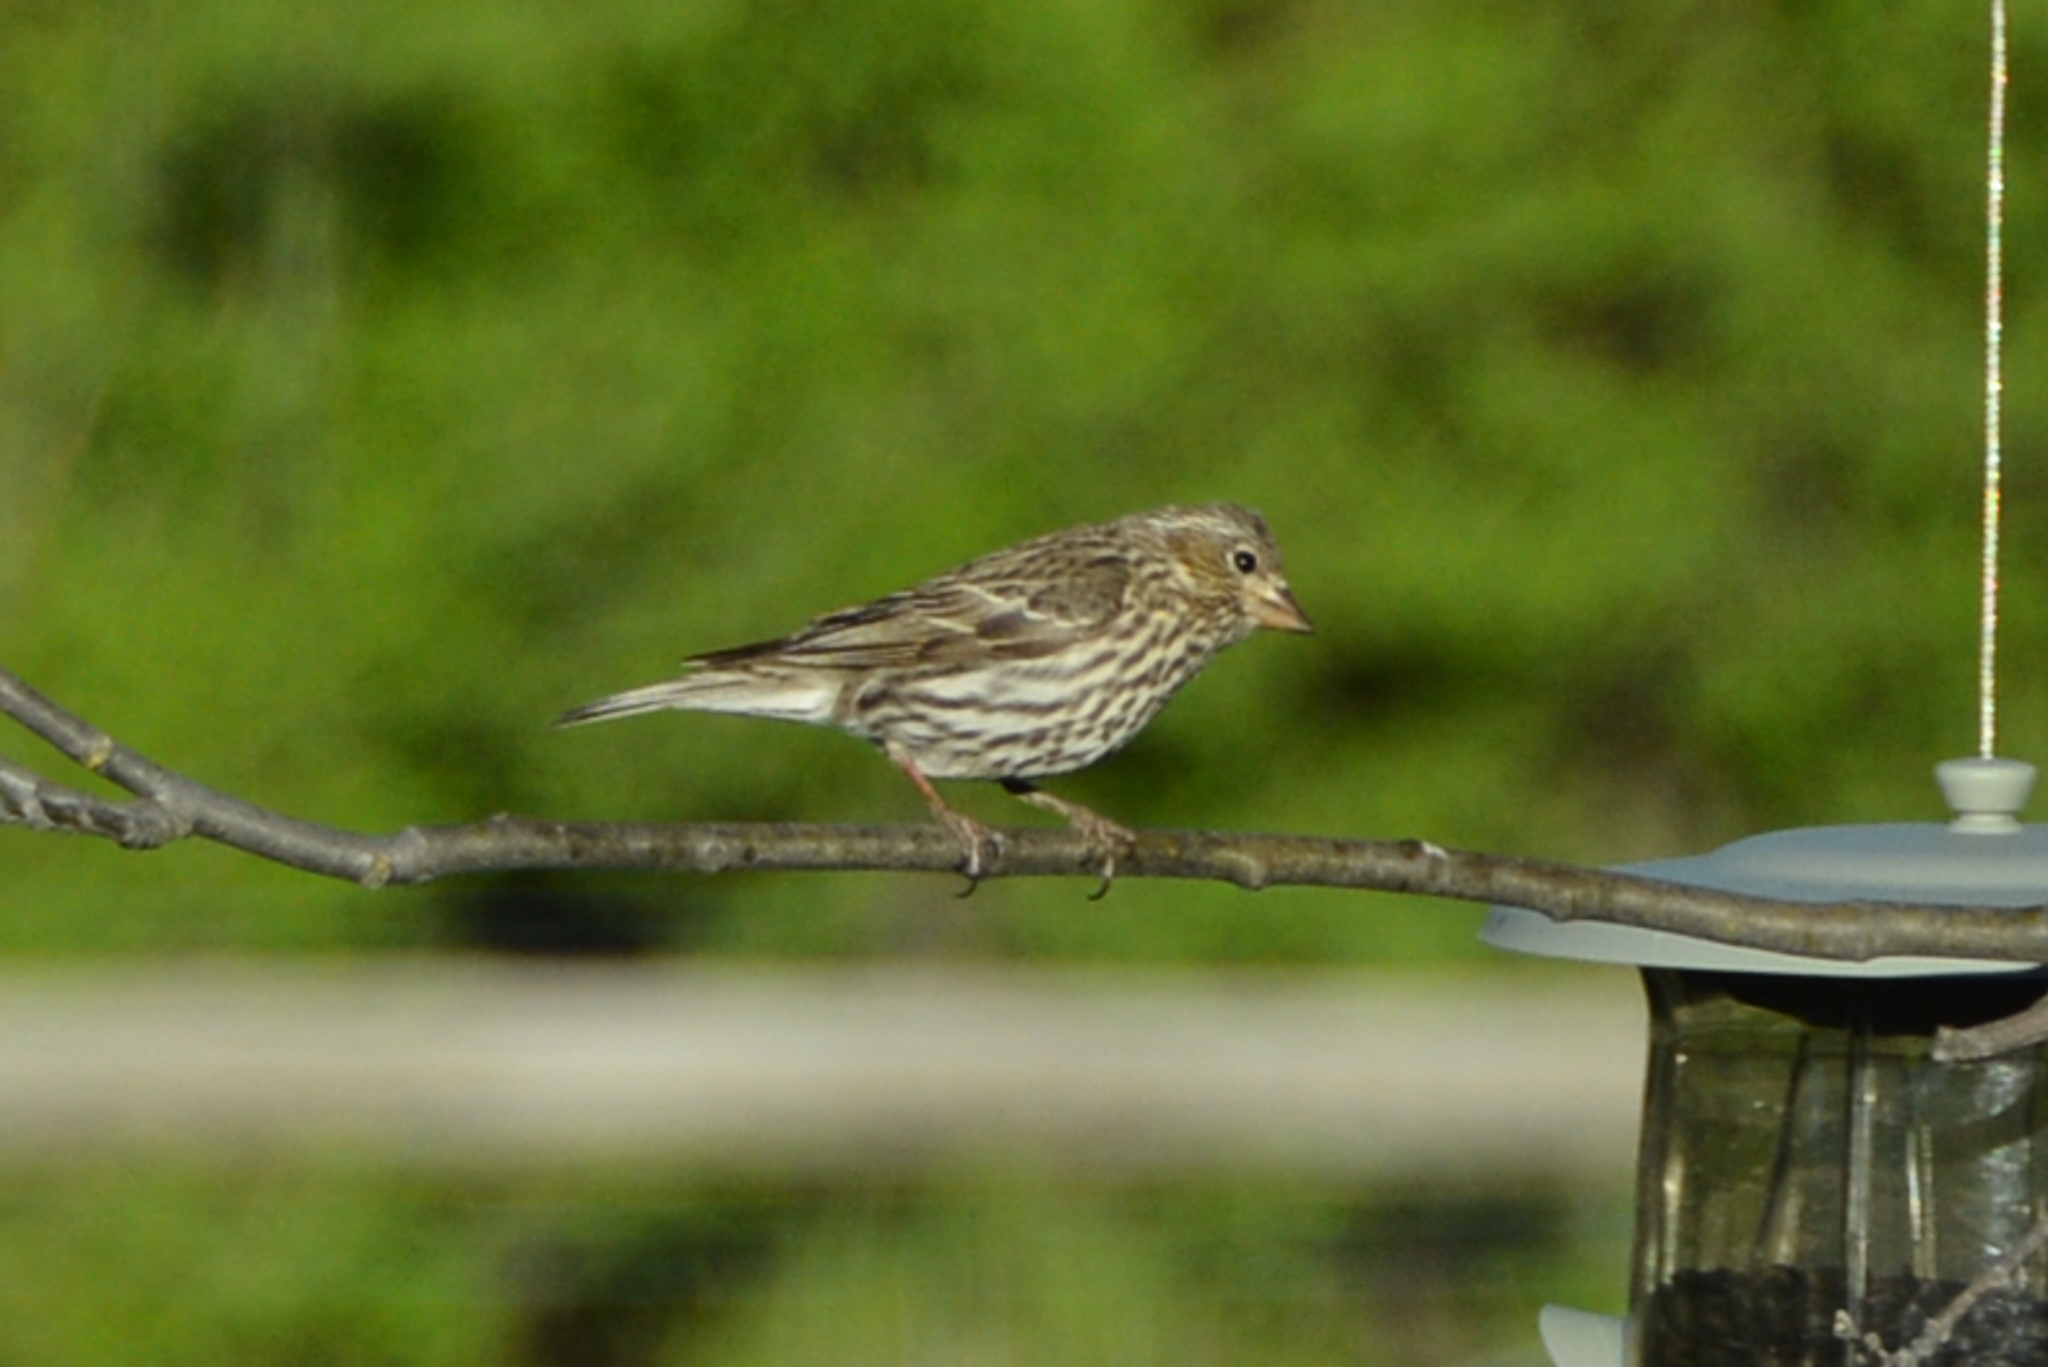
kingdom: Animalia
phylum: Chordata
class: Aves
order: Passeriformes
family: Fringillidae
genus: Haemorhous
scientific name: Haemorhous cassinii
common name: Cassin's finch
